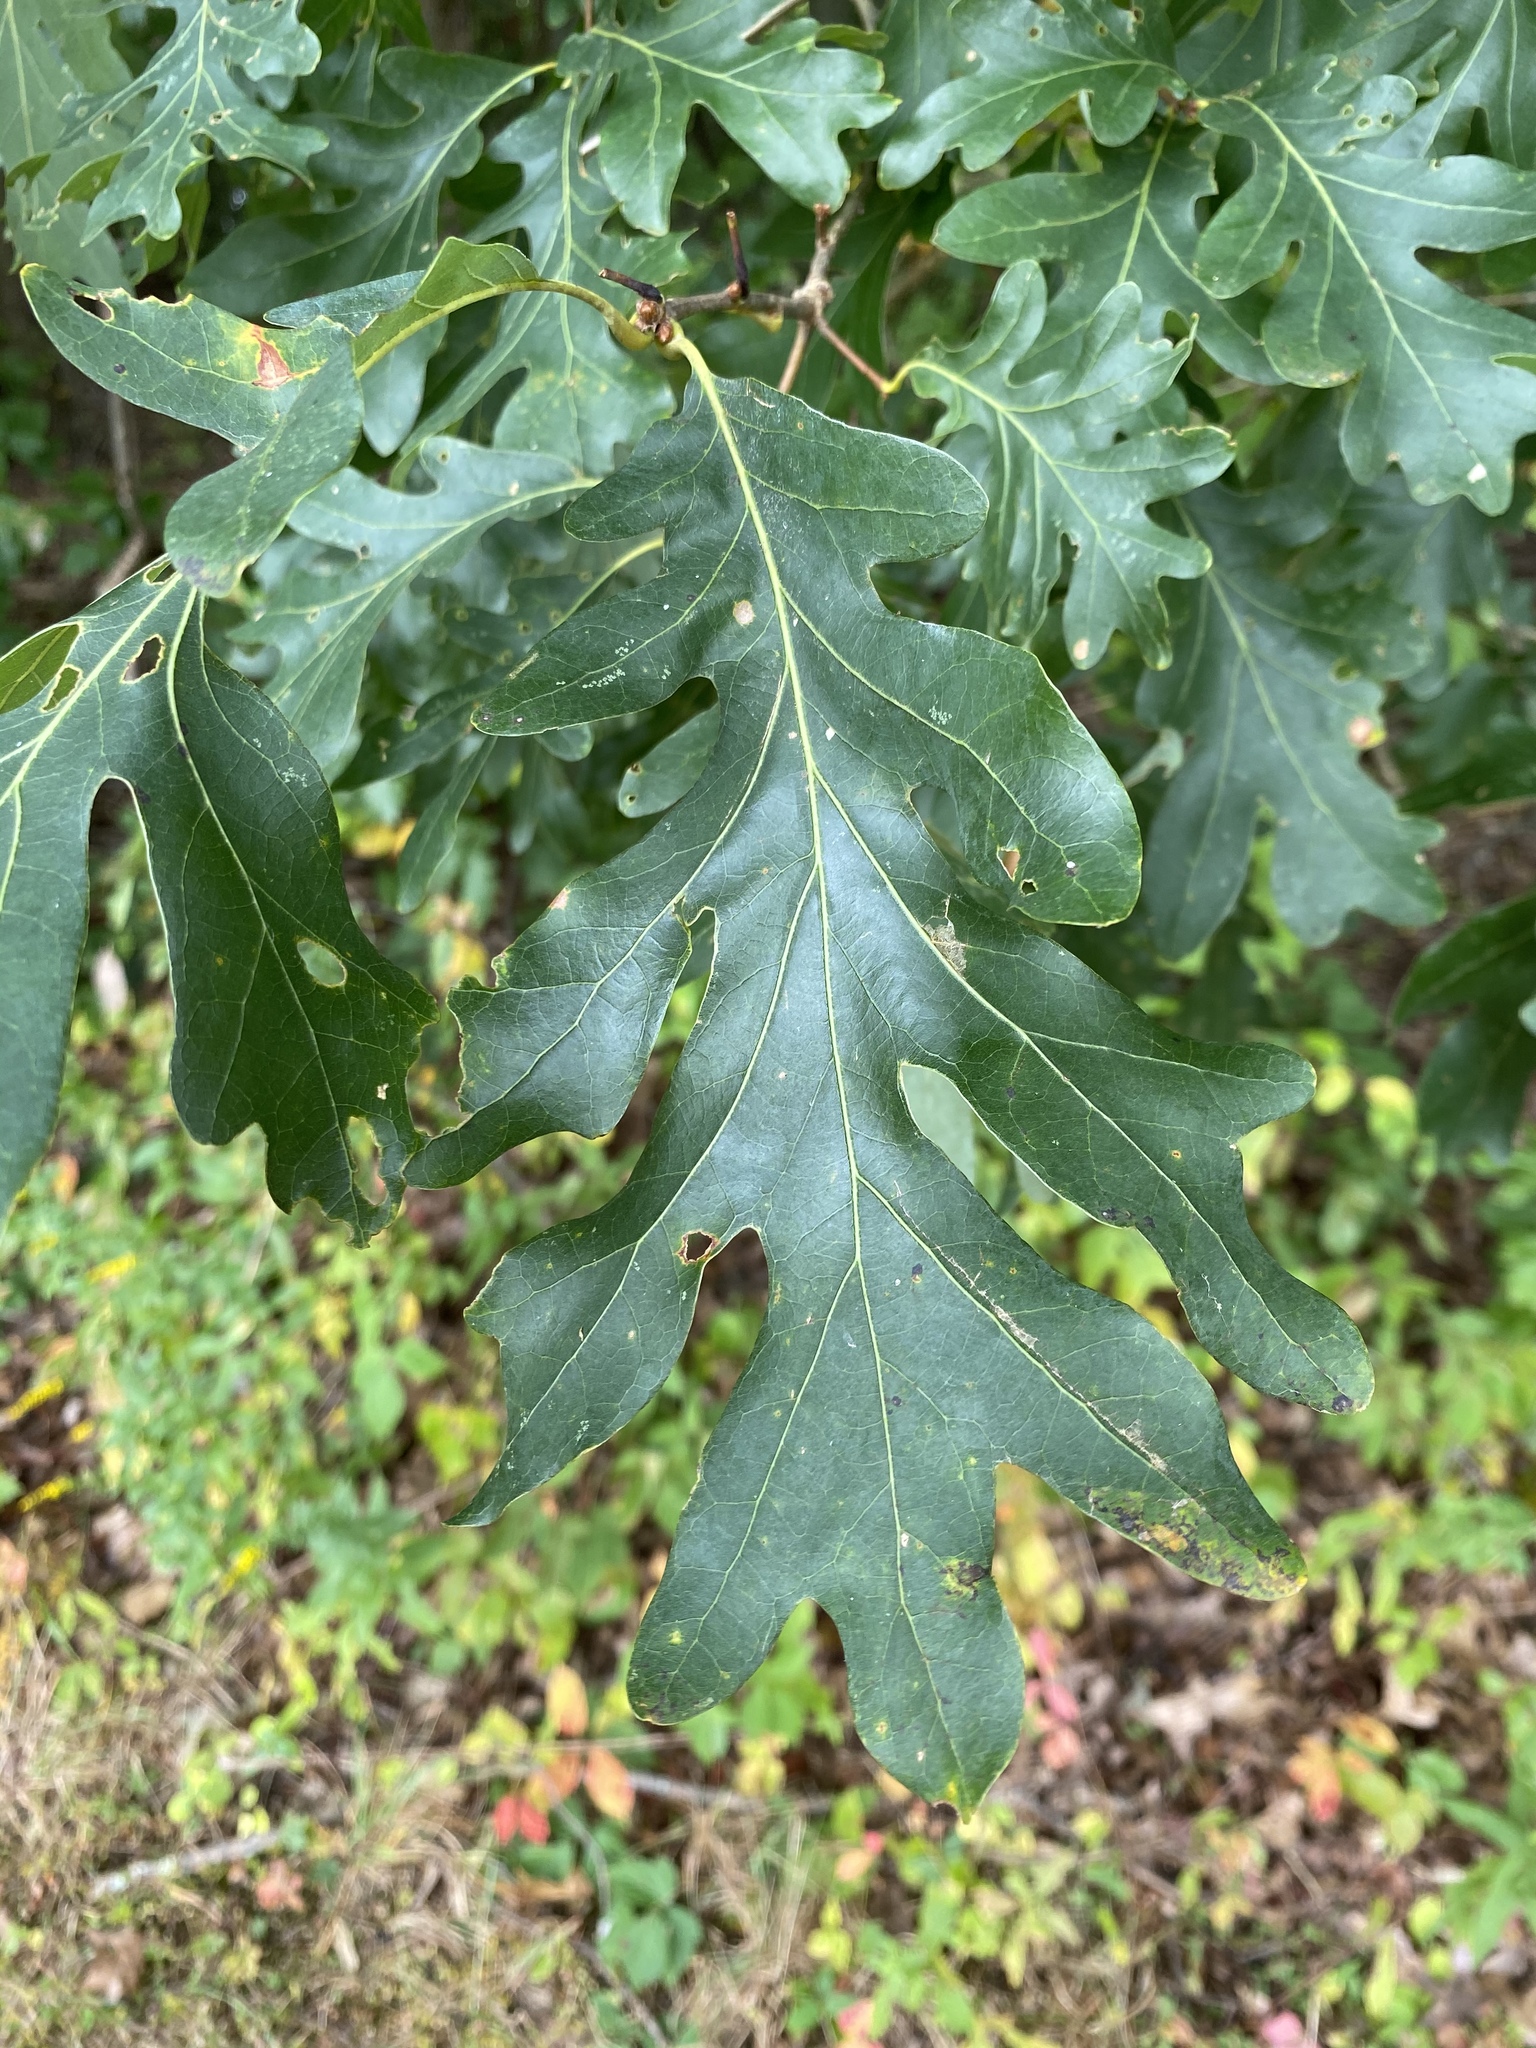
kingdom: Plantae
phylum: Tracheophyta
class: Magnoliopsida
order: Fagales
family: Fagaceae
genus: Quercus
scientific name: Quercus alba
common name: White oak
